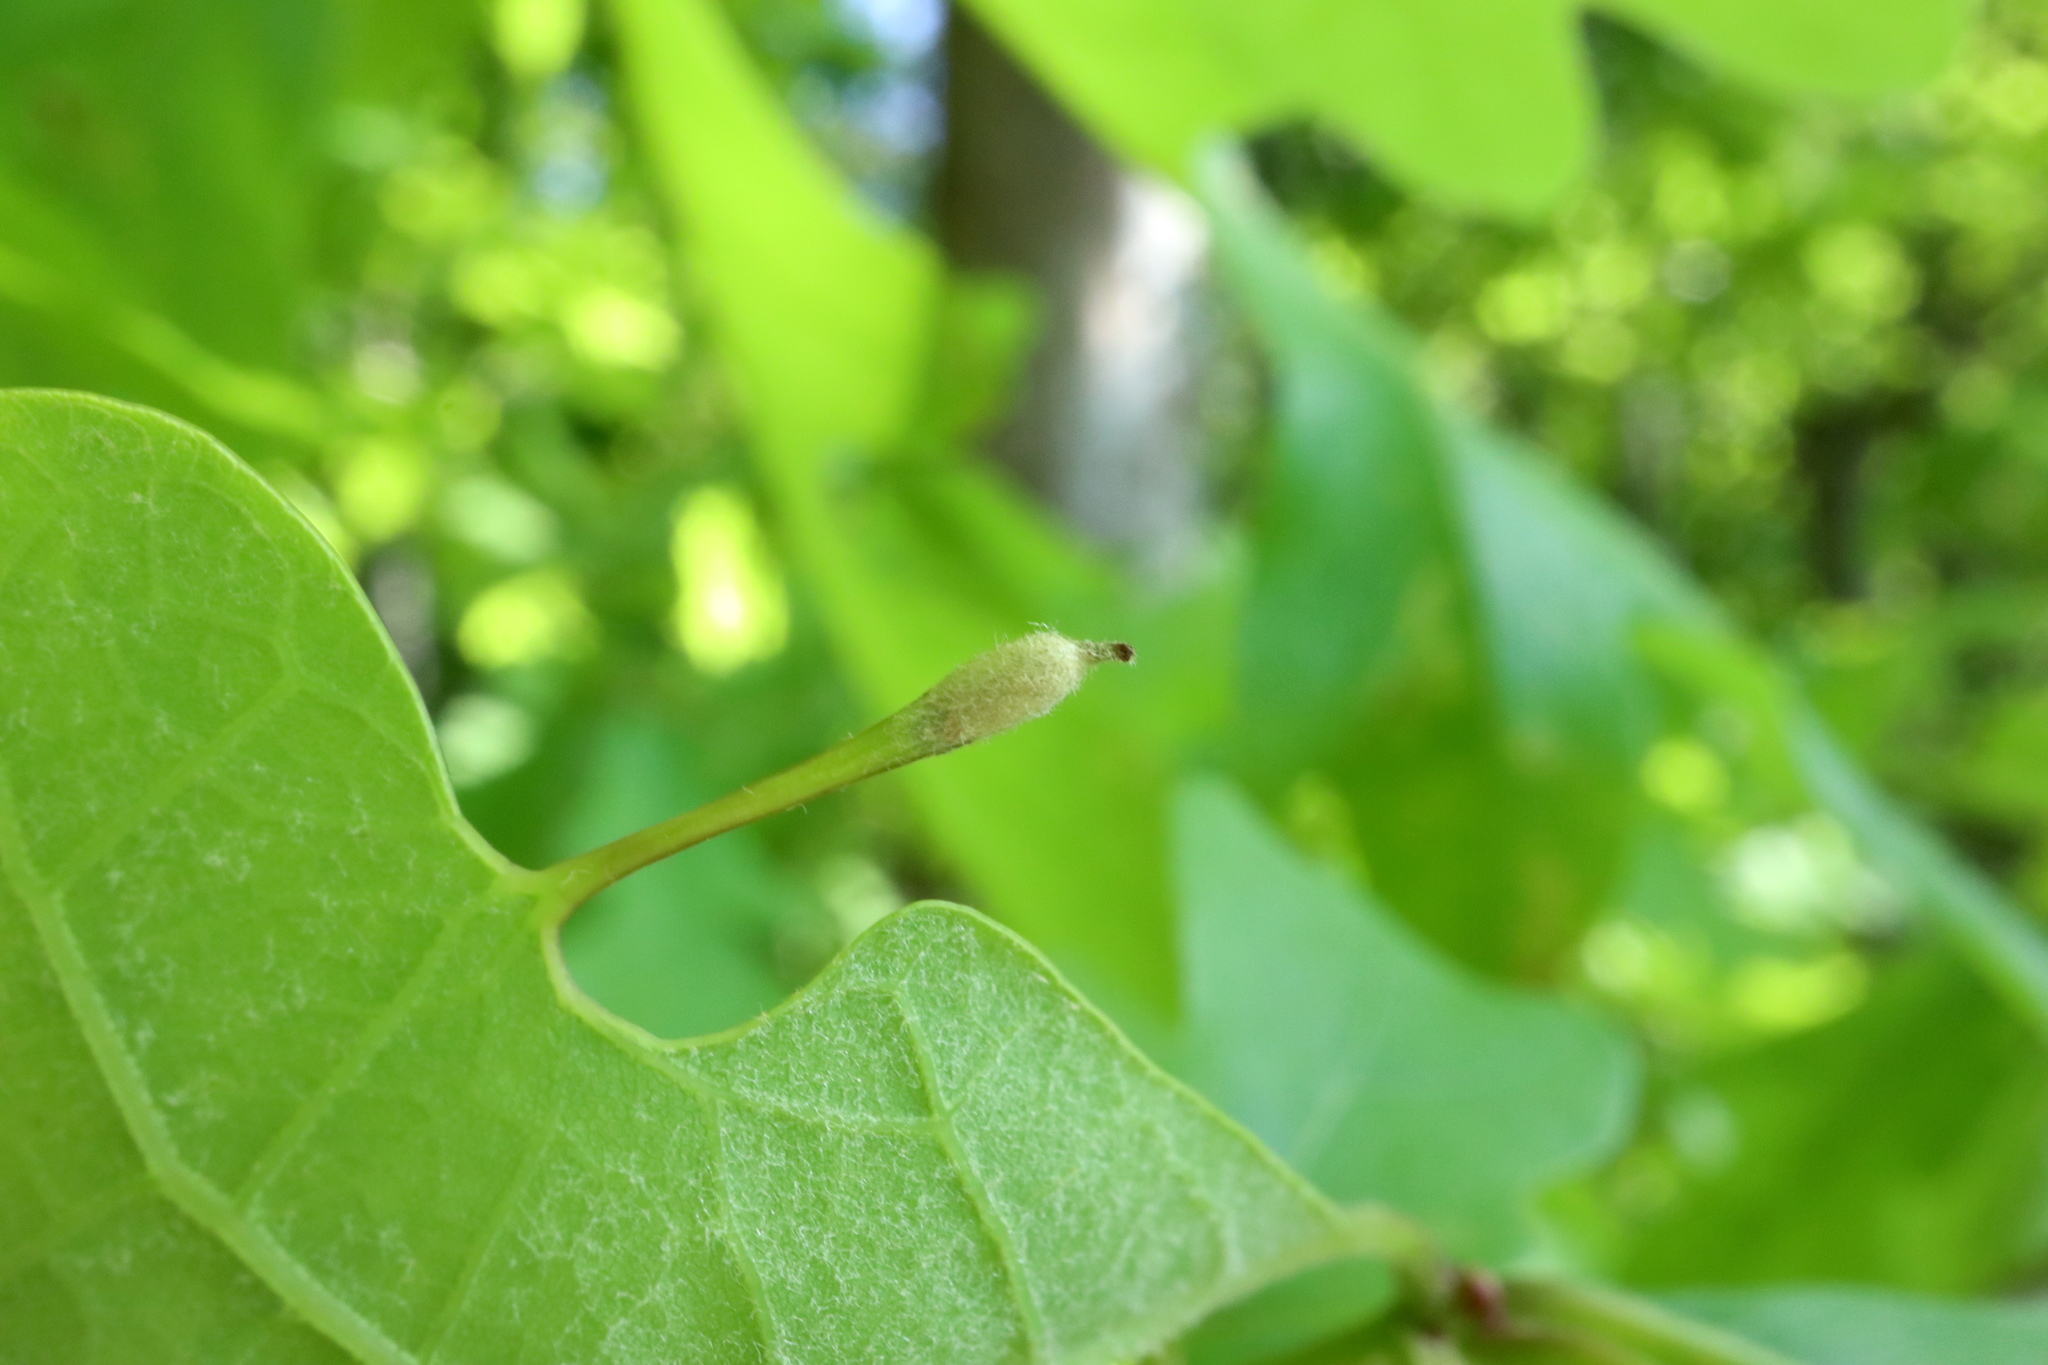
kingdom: Animalia
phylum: Arthropoda
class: Insecta
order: Hymenoptera
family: Cynipidae
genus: Andricus
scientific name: Andricus
